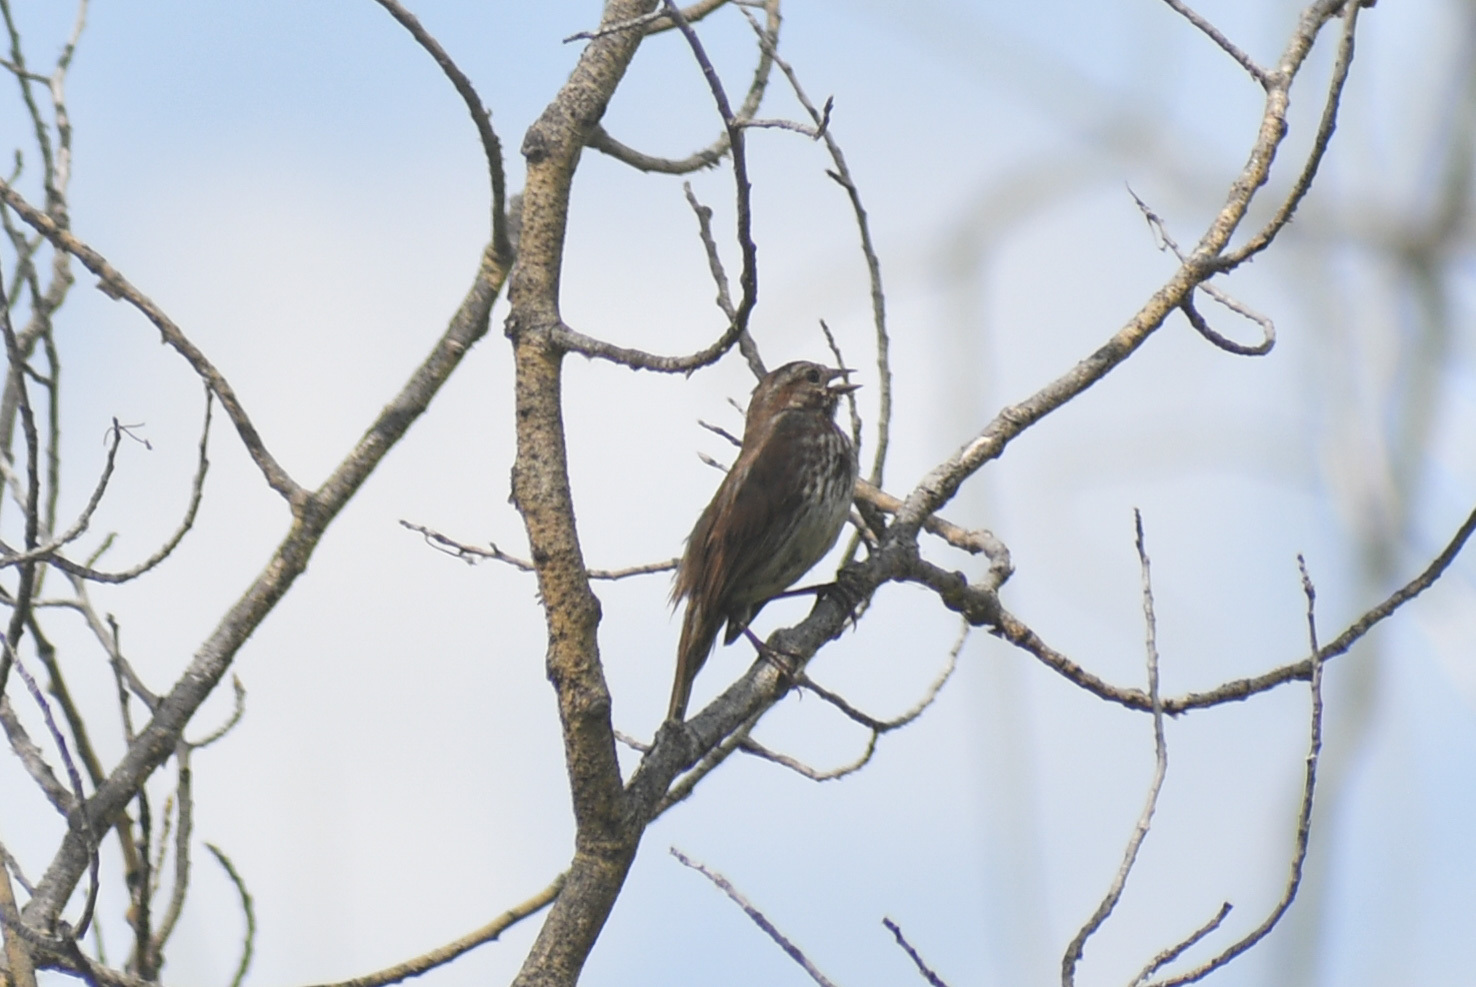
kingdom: Animalia
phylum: Chordata
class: Aves
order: Passeriformes
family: Passerellidae
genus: Melospiza
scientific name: Melospiza melodia
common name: Song sparrow
